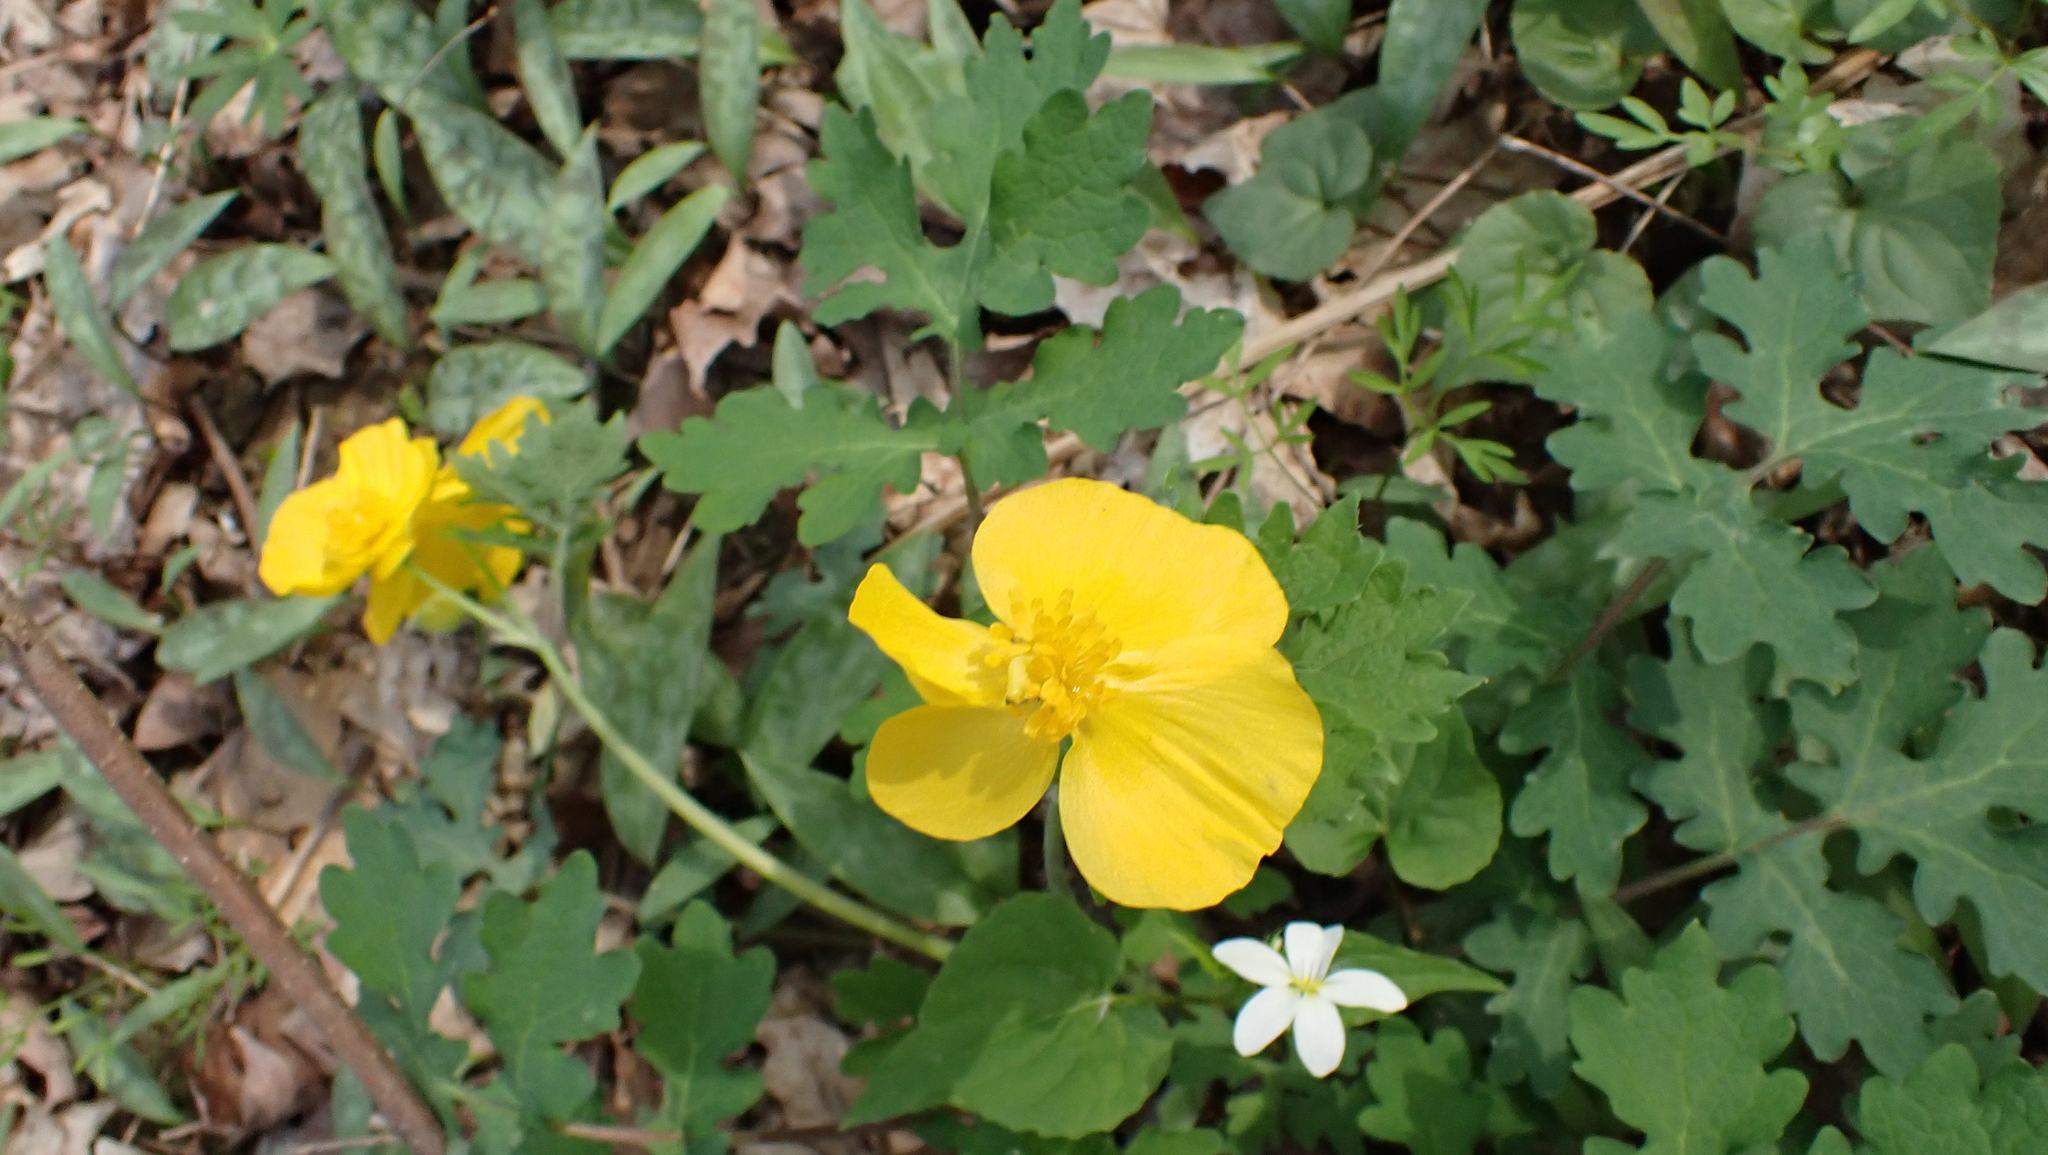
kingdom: Plantae
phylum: Tracheophyta
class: Magnoliopsida
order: Ranunculales
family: Papaveraceae
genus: Stylophorum
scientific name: Stylophorum diphyllum
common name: Celandine poppy
